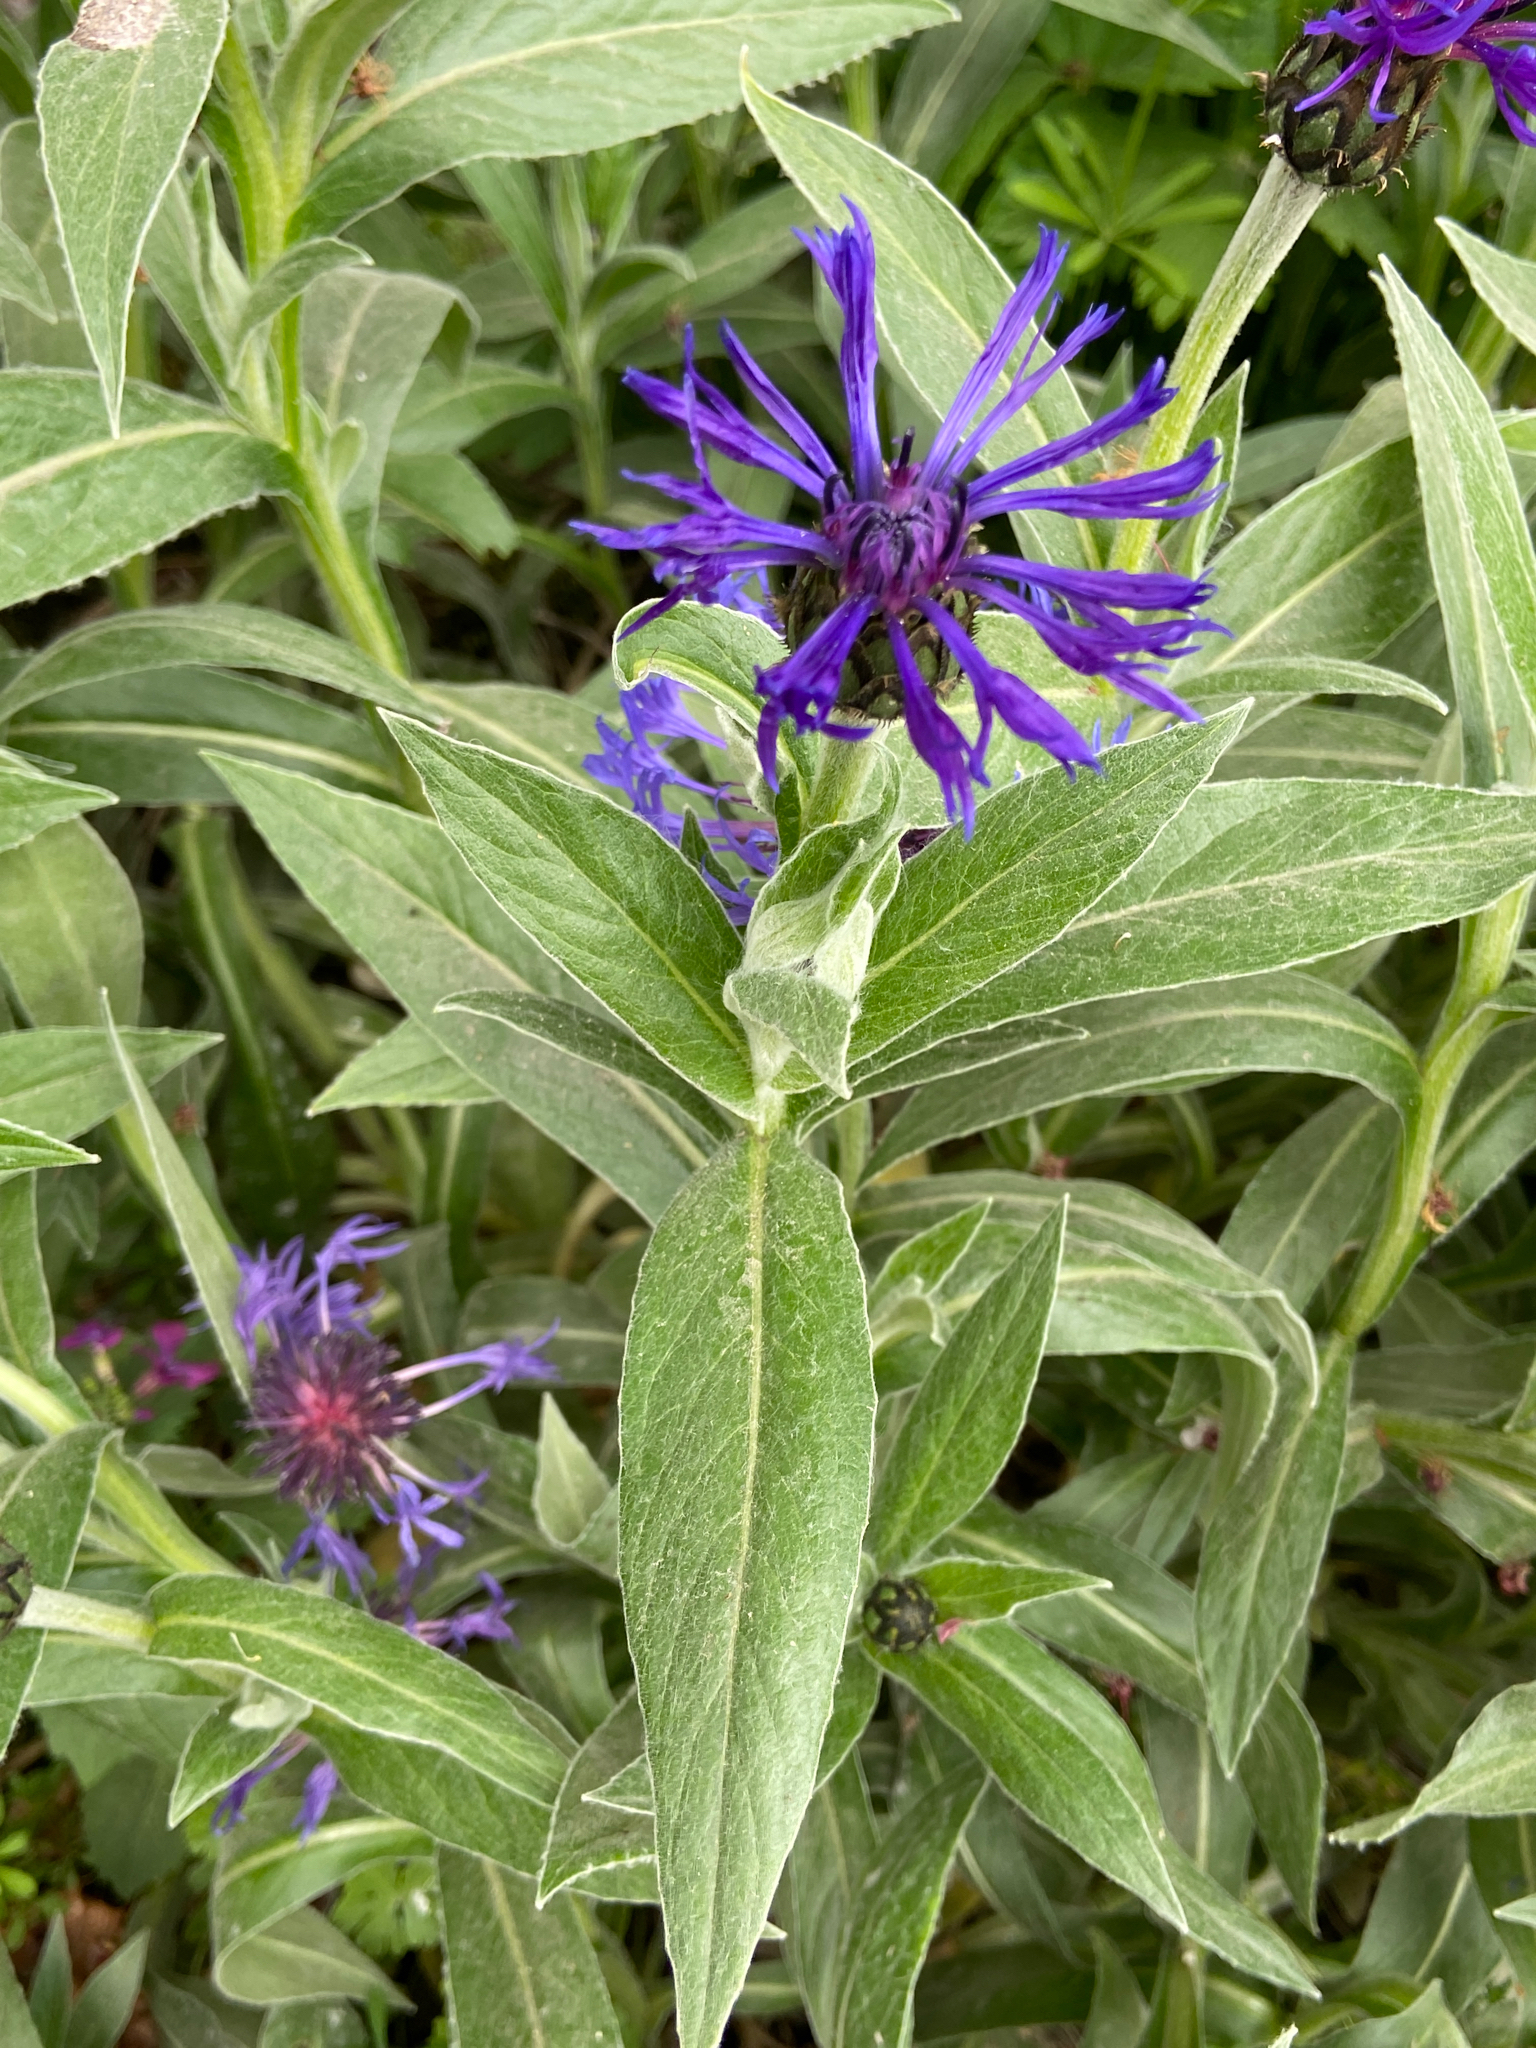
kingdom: Plantae
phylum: Tracheophyta
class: Magnoliopsida
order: Asterales
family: Asteraceae
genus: Centaurea
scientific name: Centaurea montana
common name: Perennial cornflower
